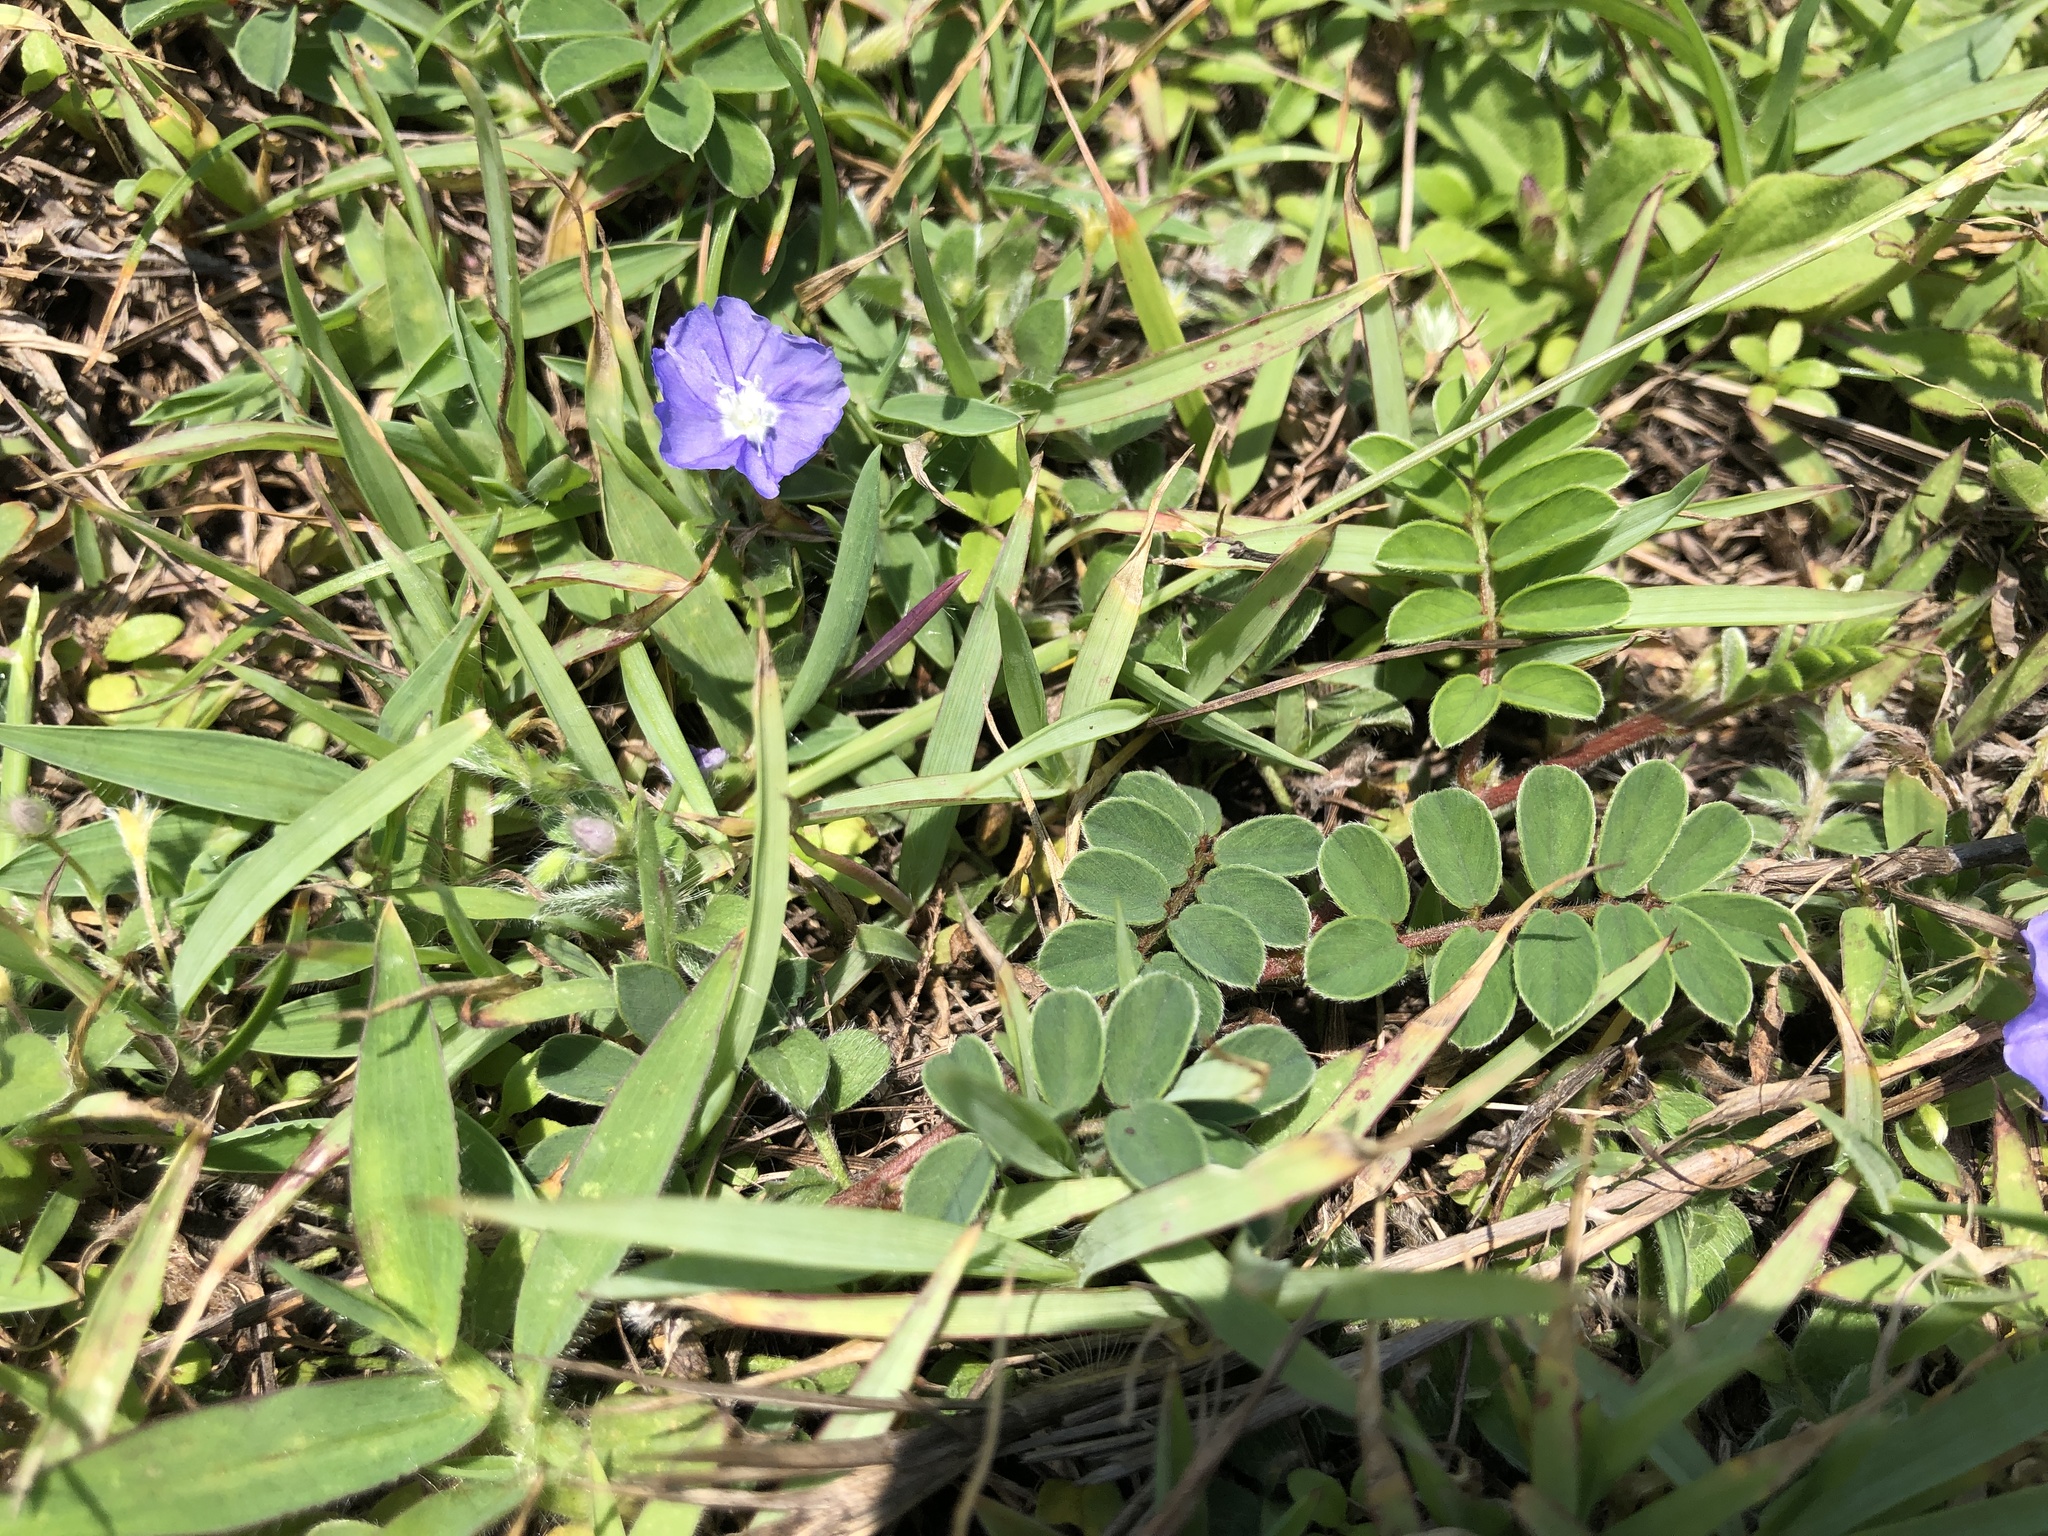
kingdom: Plantae
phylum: Tracheophyta
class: Magnoliopsida
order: Solanales
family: Convolvulaceae
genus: Evolvulus
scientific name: Evolvulus alsinoides
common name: Slender dwarf morning-glory
